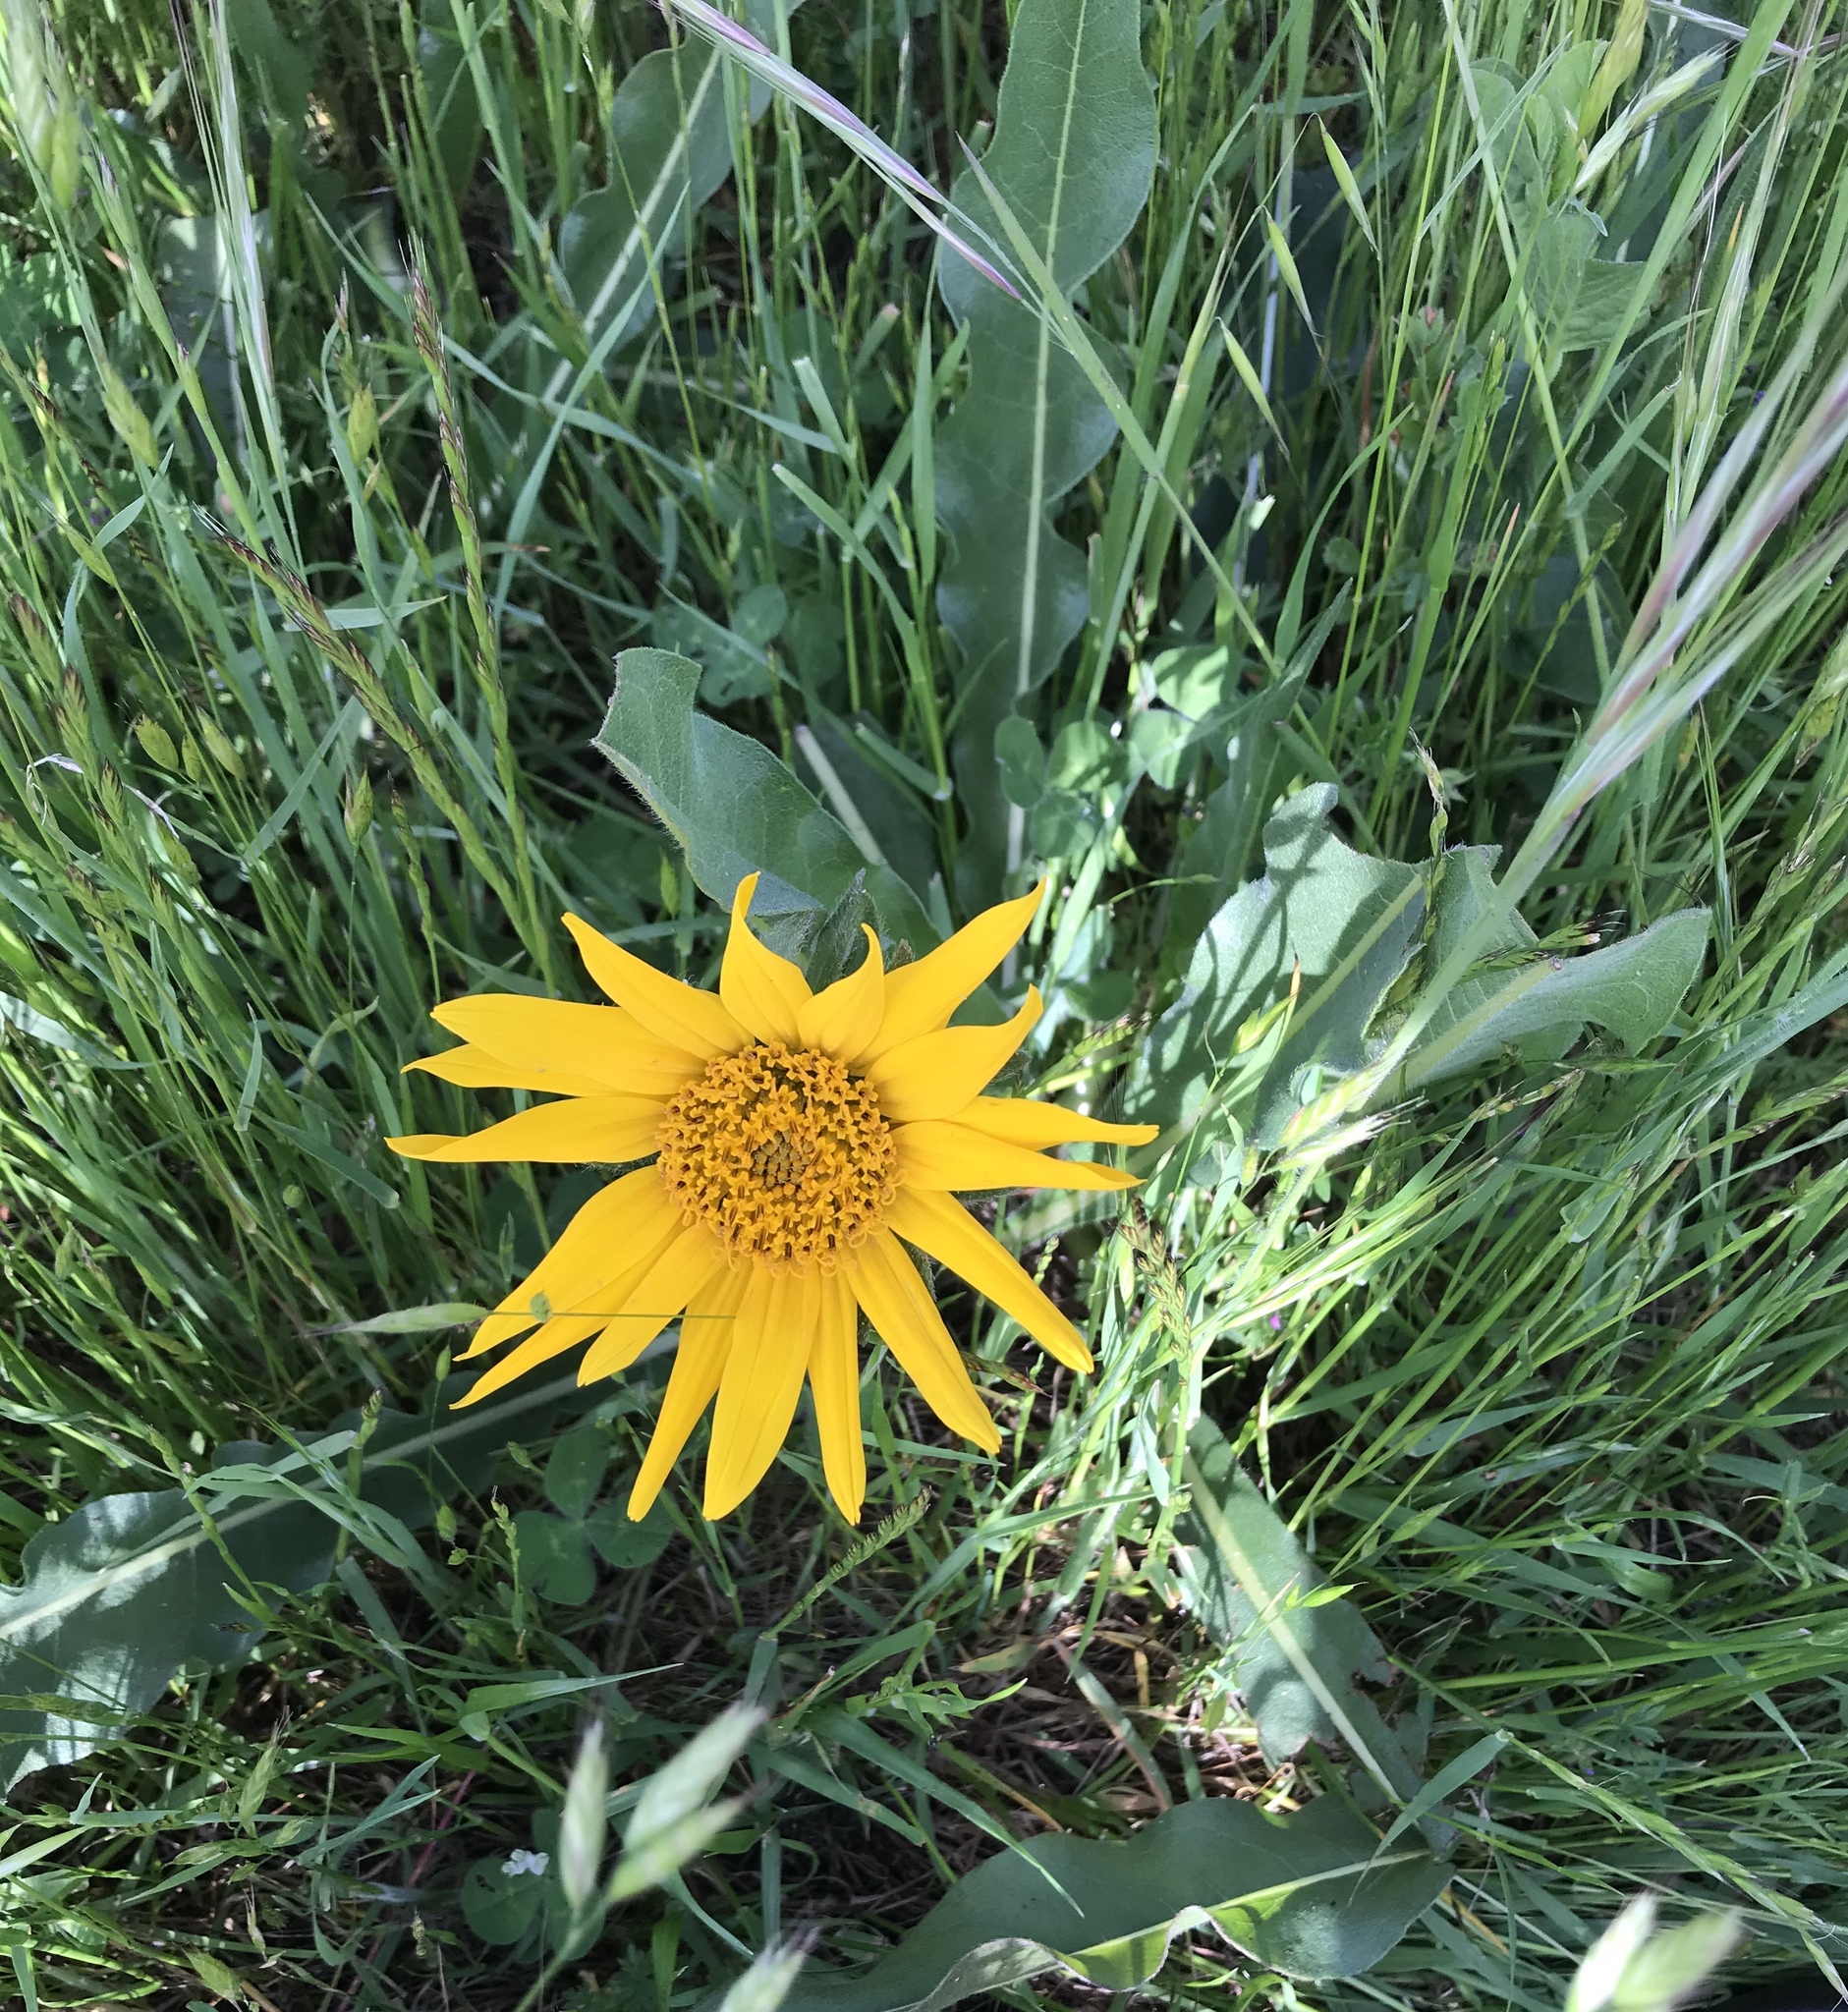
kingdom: Plantae
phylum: Tracheophyta
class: Magnoliopsida
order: Asterales
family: Asteraceae
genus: Wyethia
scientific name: Wyethia angustifolia
